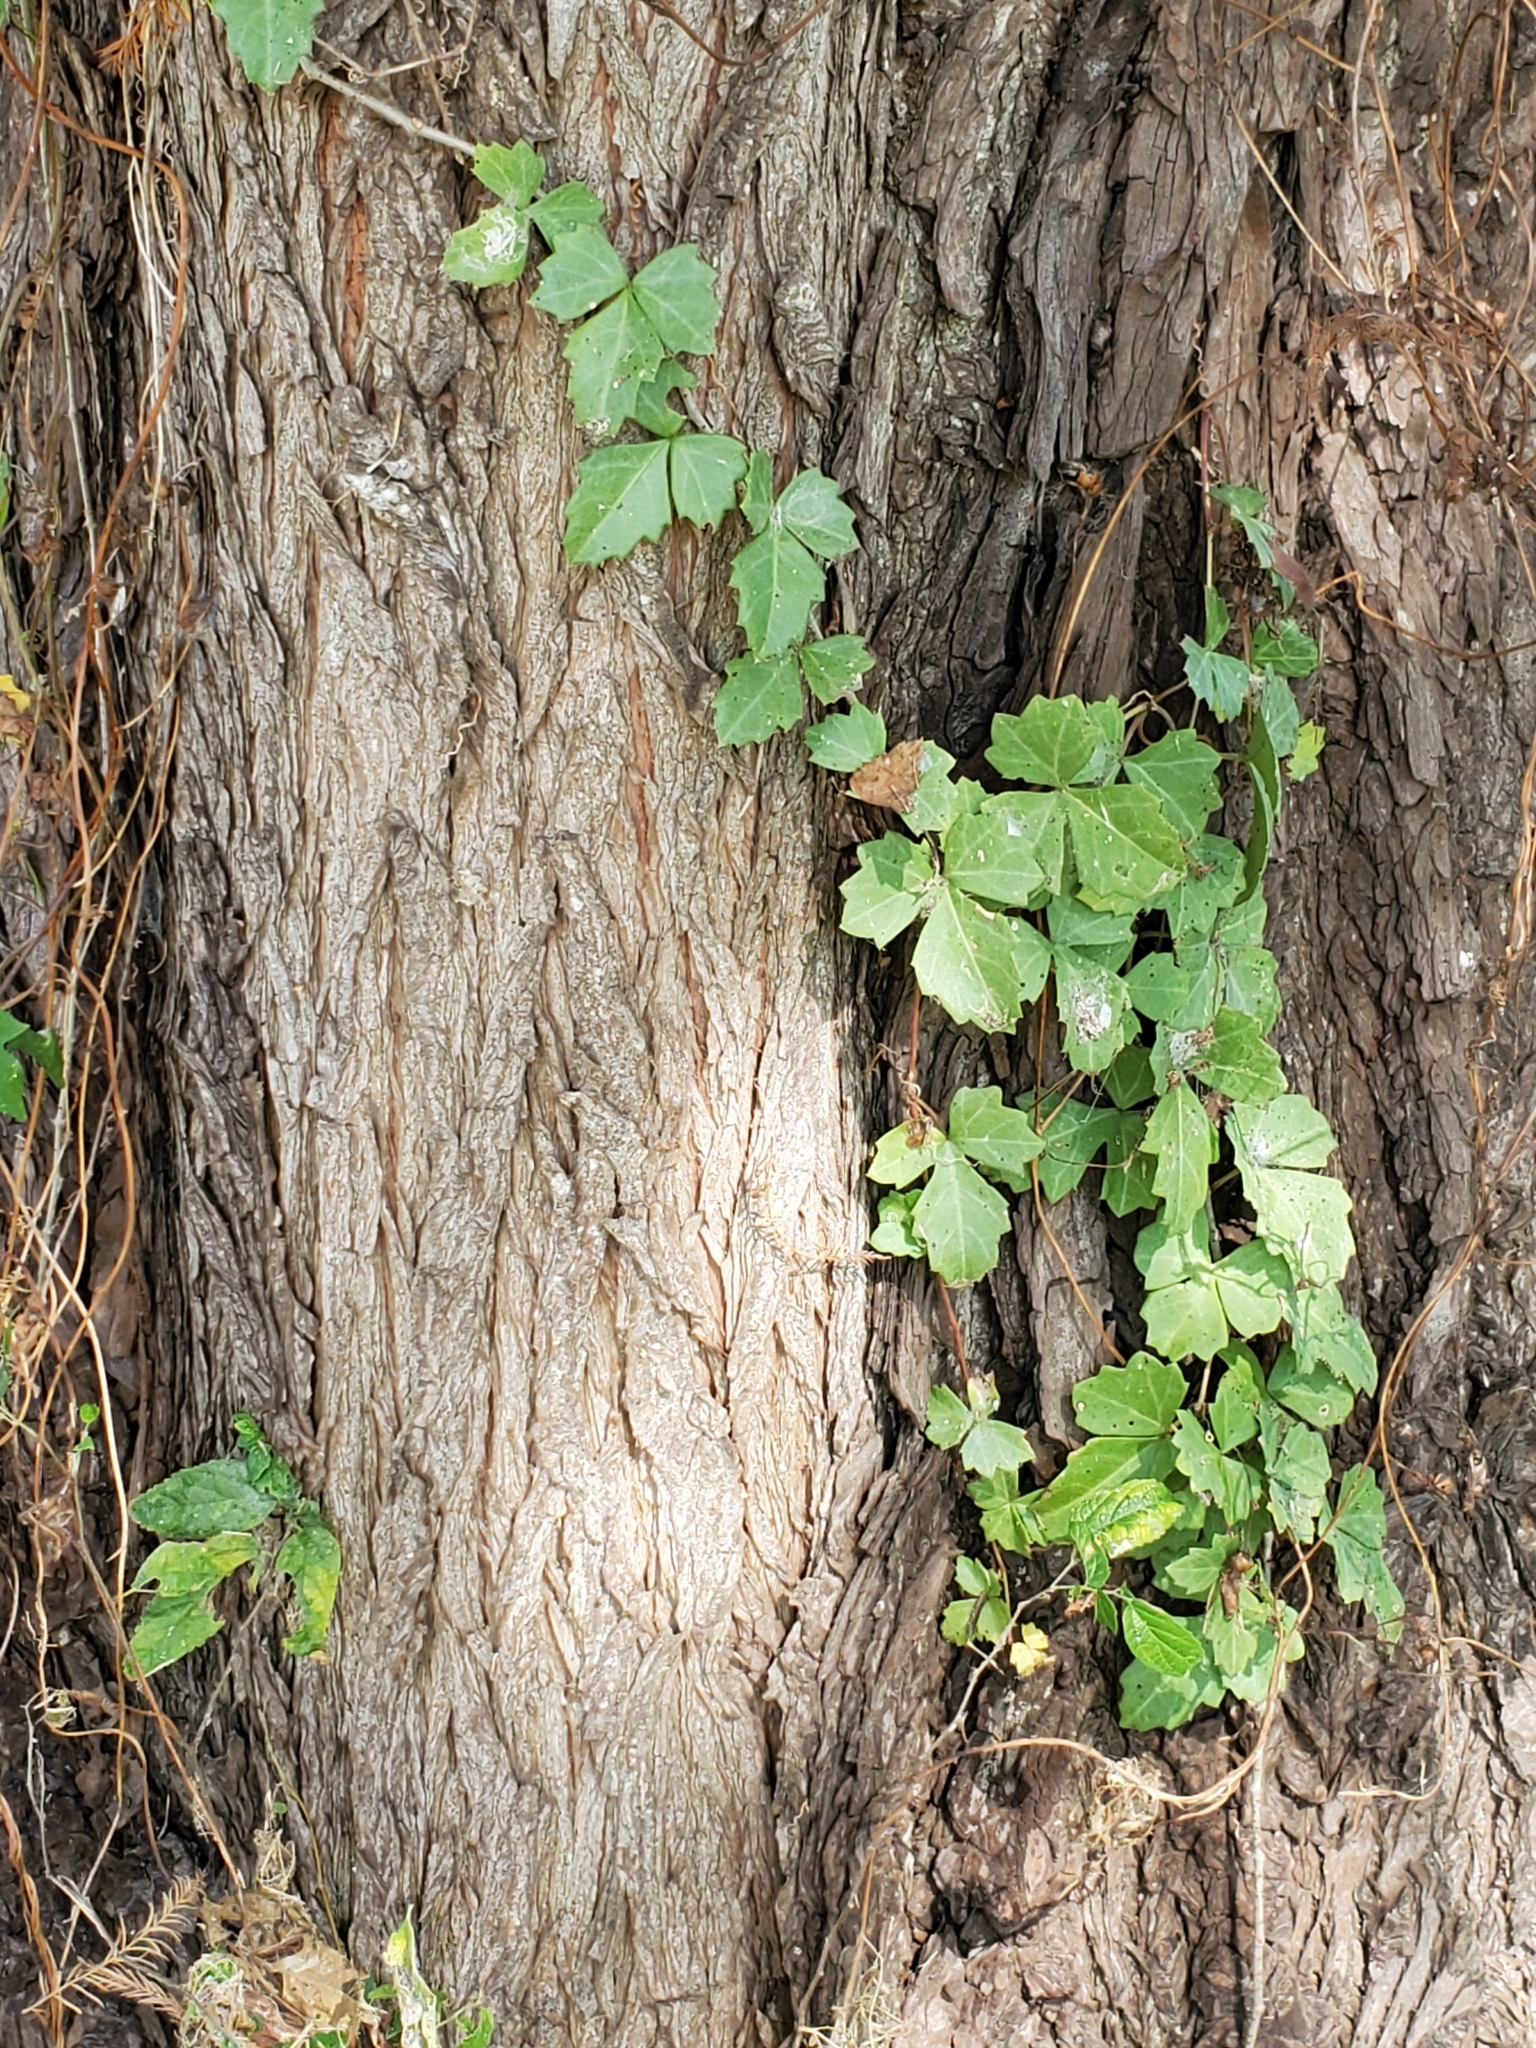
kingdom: Plantae
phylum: Tracheophyta
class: Magnoliopsida
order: Vitales
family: Vitaceae
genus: Cissus
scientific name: Cissus trifoliata
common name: Vine-sorrel
